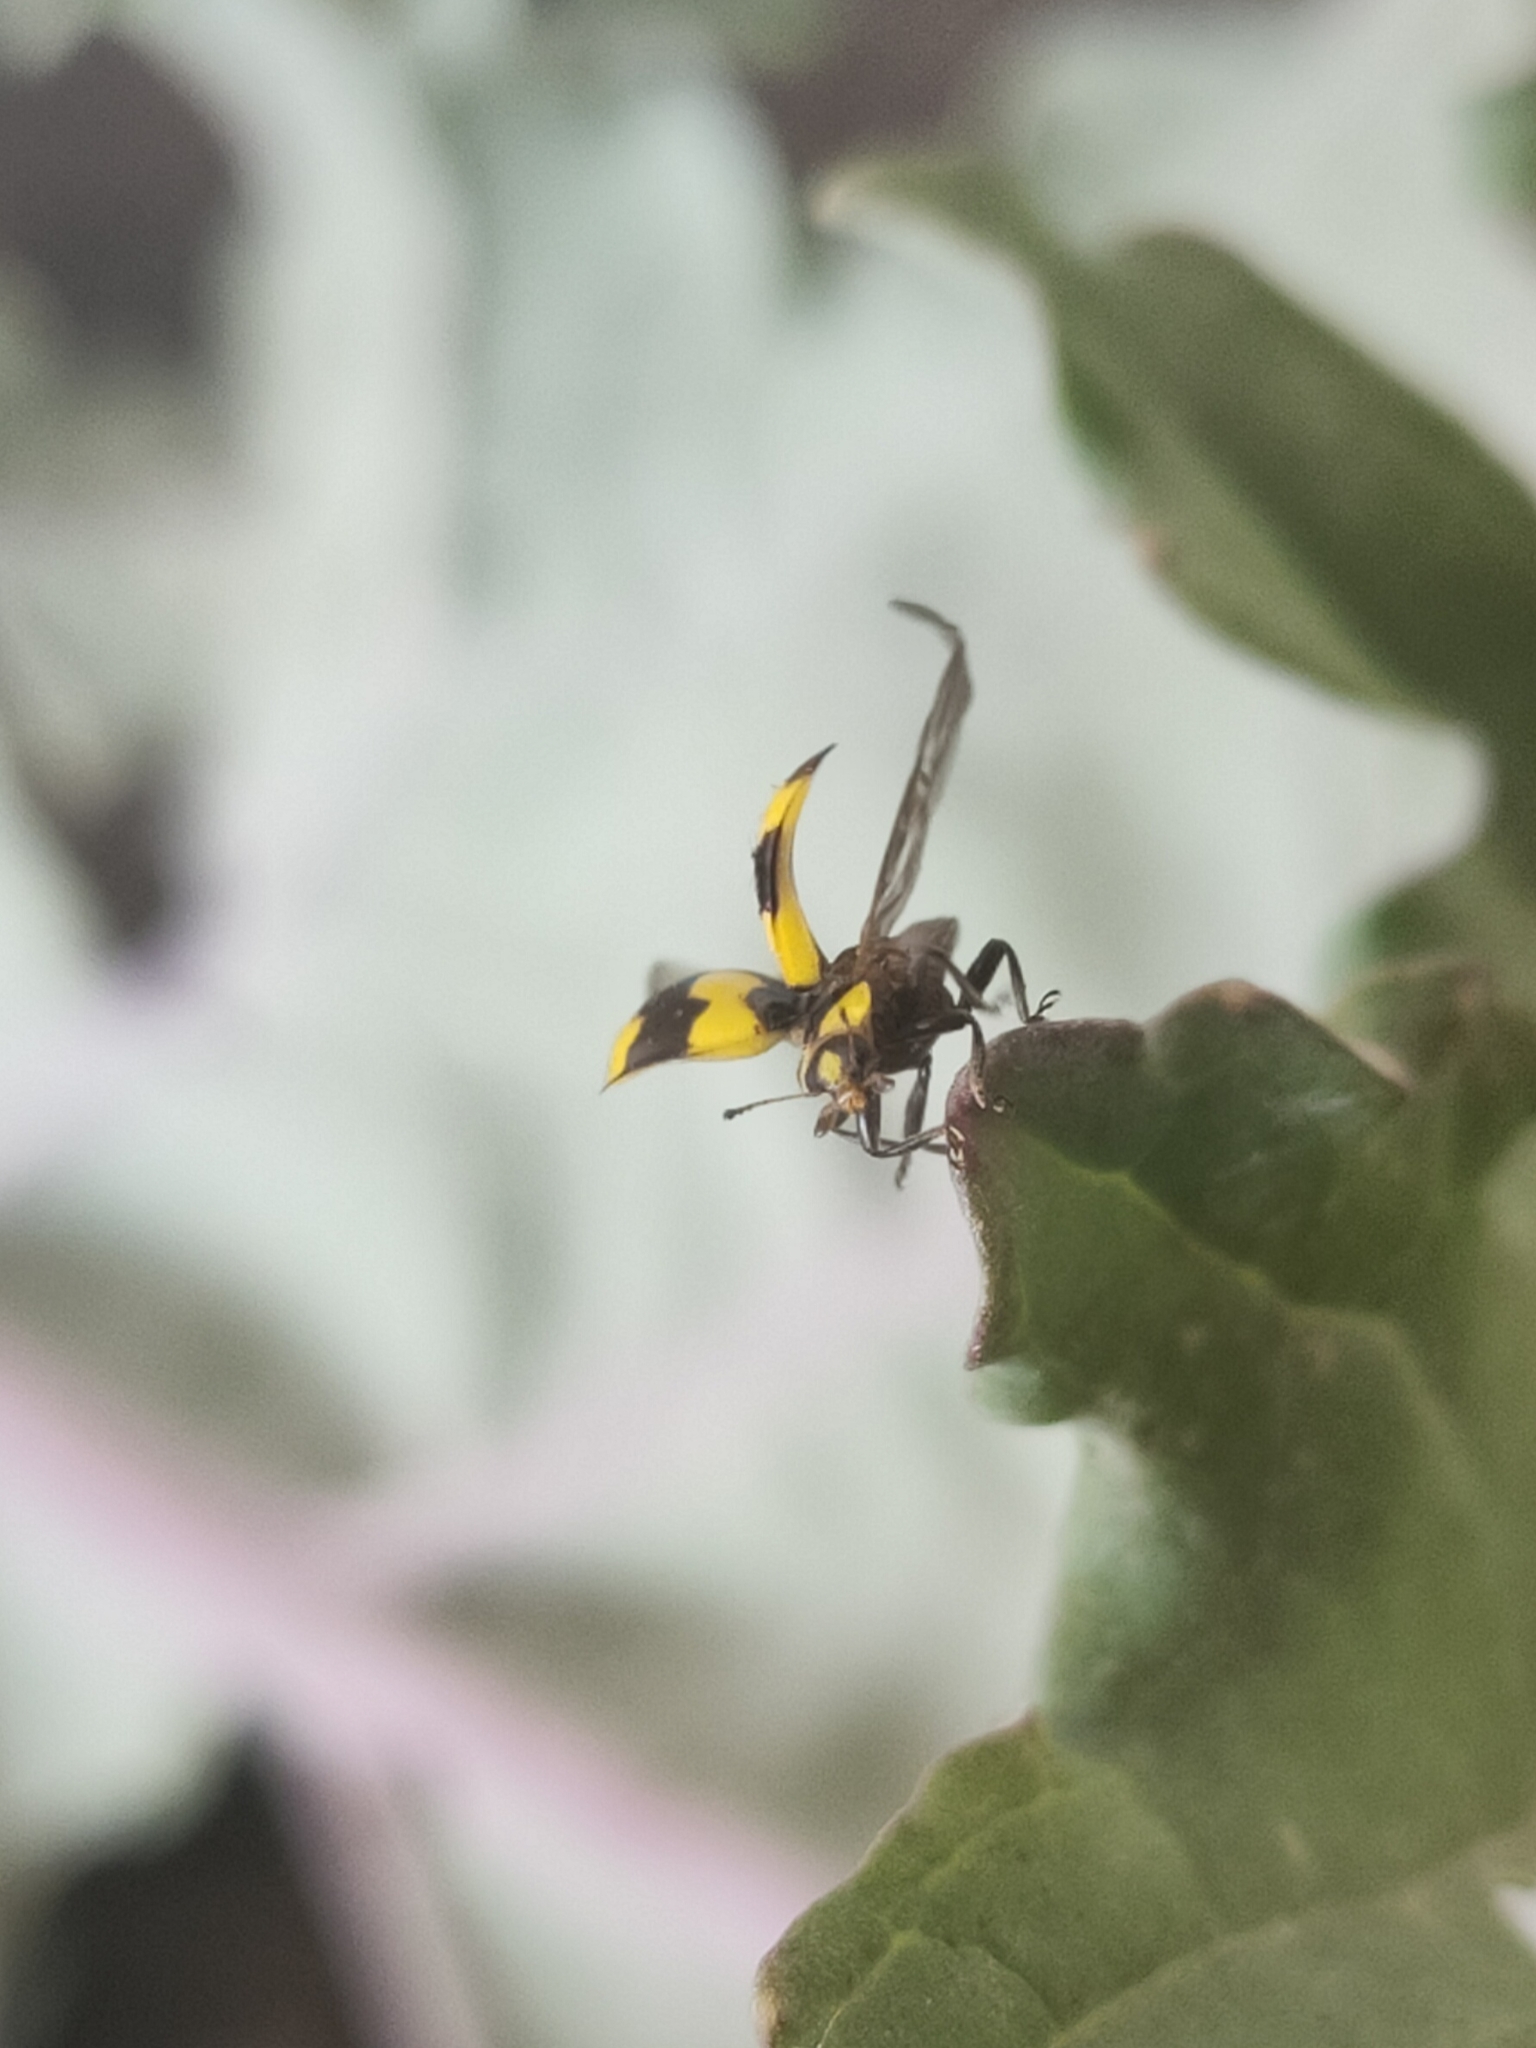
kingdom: Animalia
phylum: Arthropoda
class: Insecta
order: Coleoptera
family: Coccinellidae
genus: Illeis
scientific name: Illeis galbula
